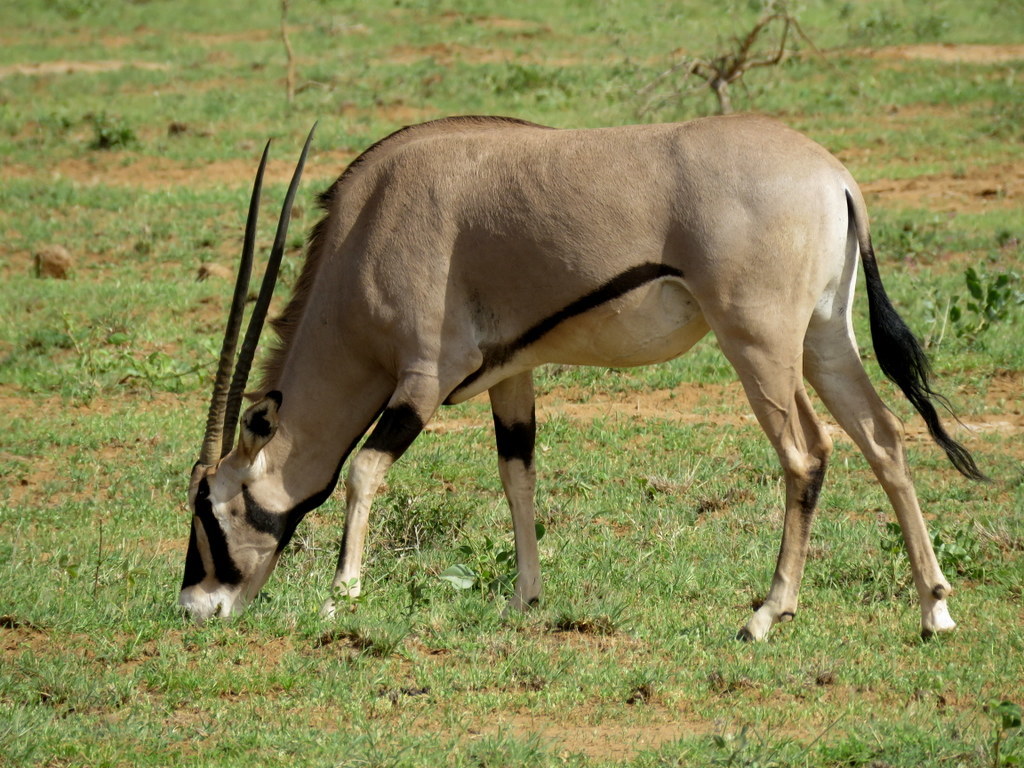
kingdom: Animalia
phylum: Chordata
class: Mammalia
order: Artiodactyla
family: Bovidae
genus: Oryx
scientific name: Oryx beisa
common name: Beisa
